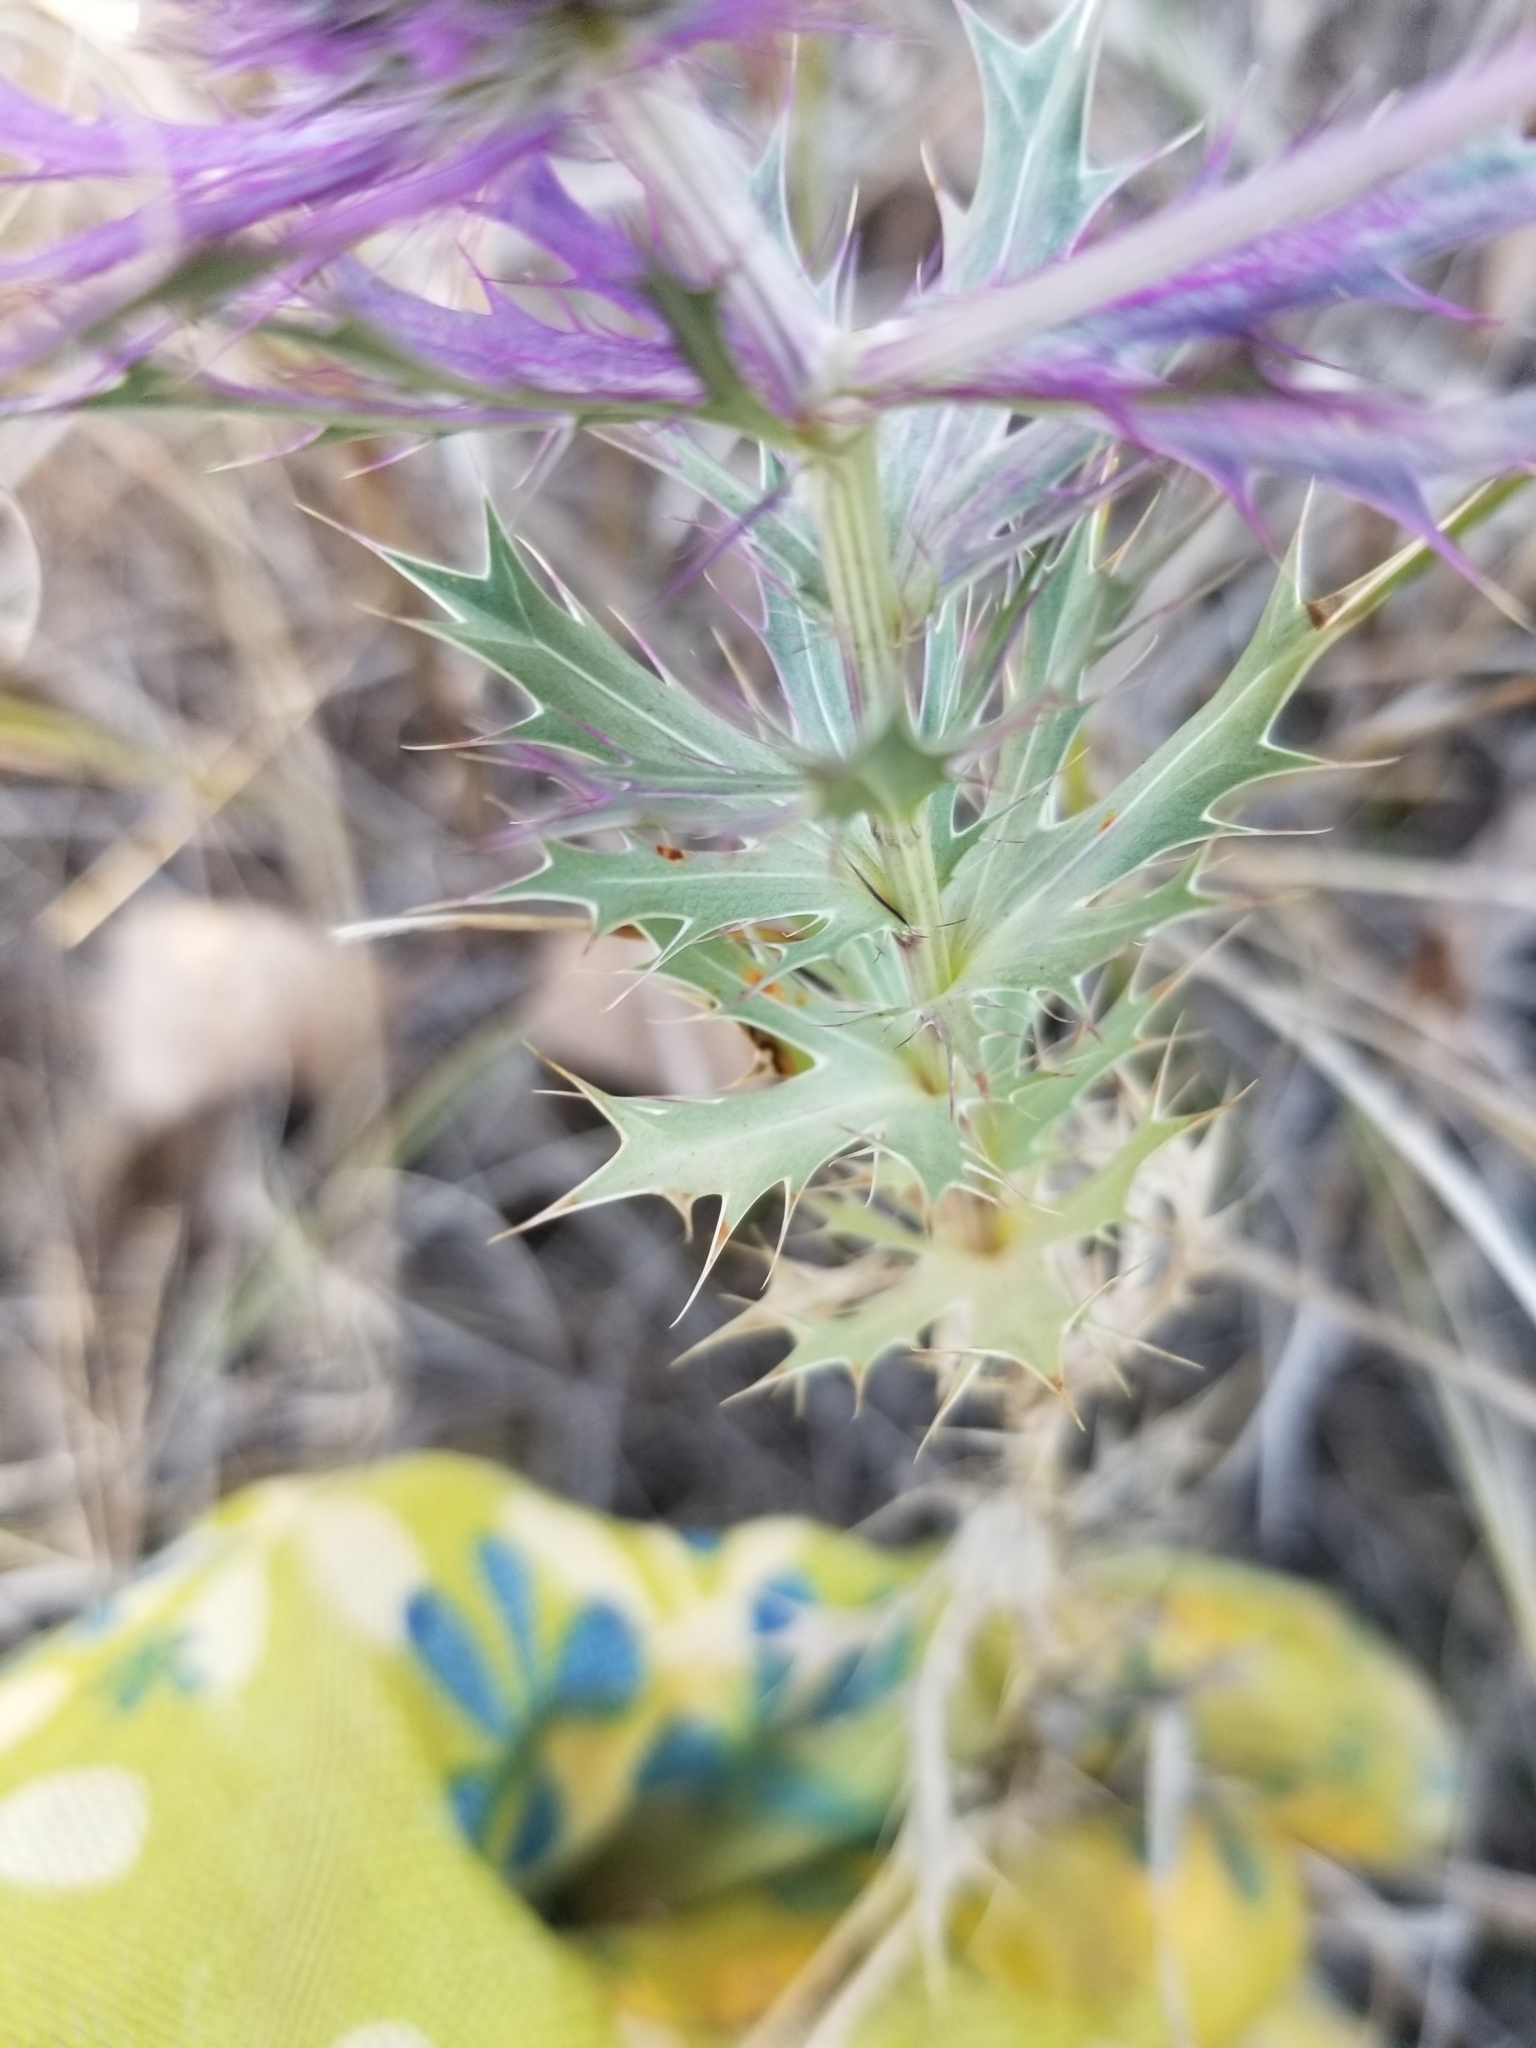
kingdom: Plantae
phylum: Tracheophyta
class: Magnoliopsida
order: Apiales
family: Apiaceae
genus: Eryngium
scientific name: Eryngium leavenworthii
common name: Leavenworth's eryngo
